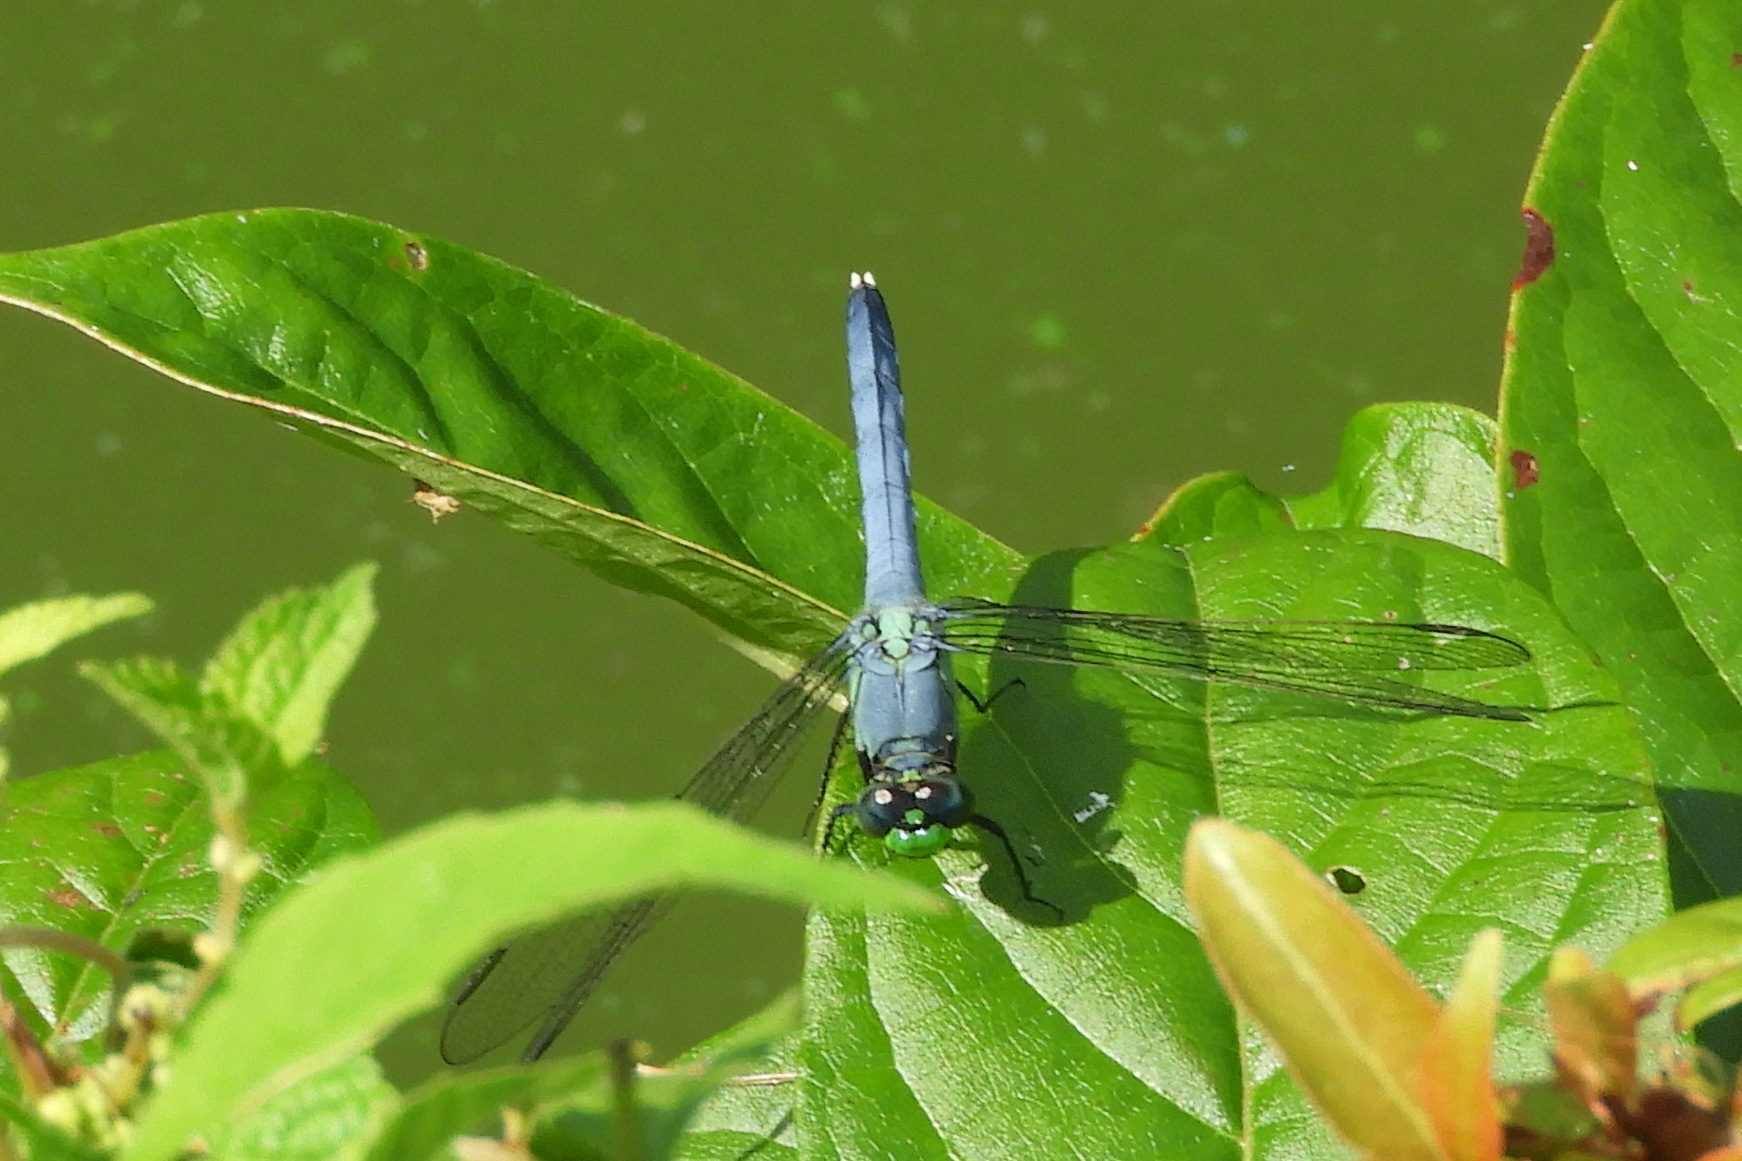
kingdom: Animalia
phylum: Arthropoda
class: Insecta
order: Odonata
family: Libellulidae
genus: Erythemis
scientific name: Erythemis simplicicollis
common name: Eastern pondhawk
